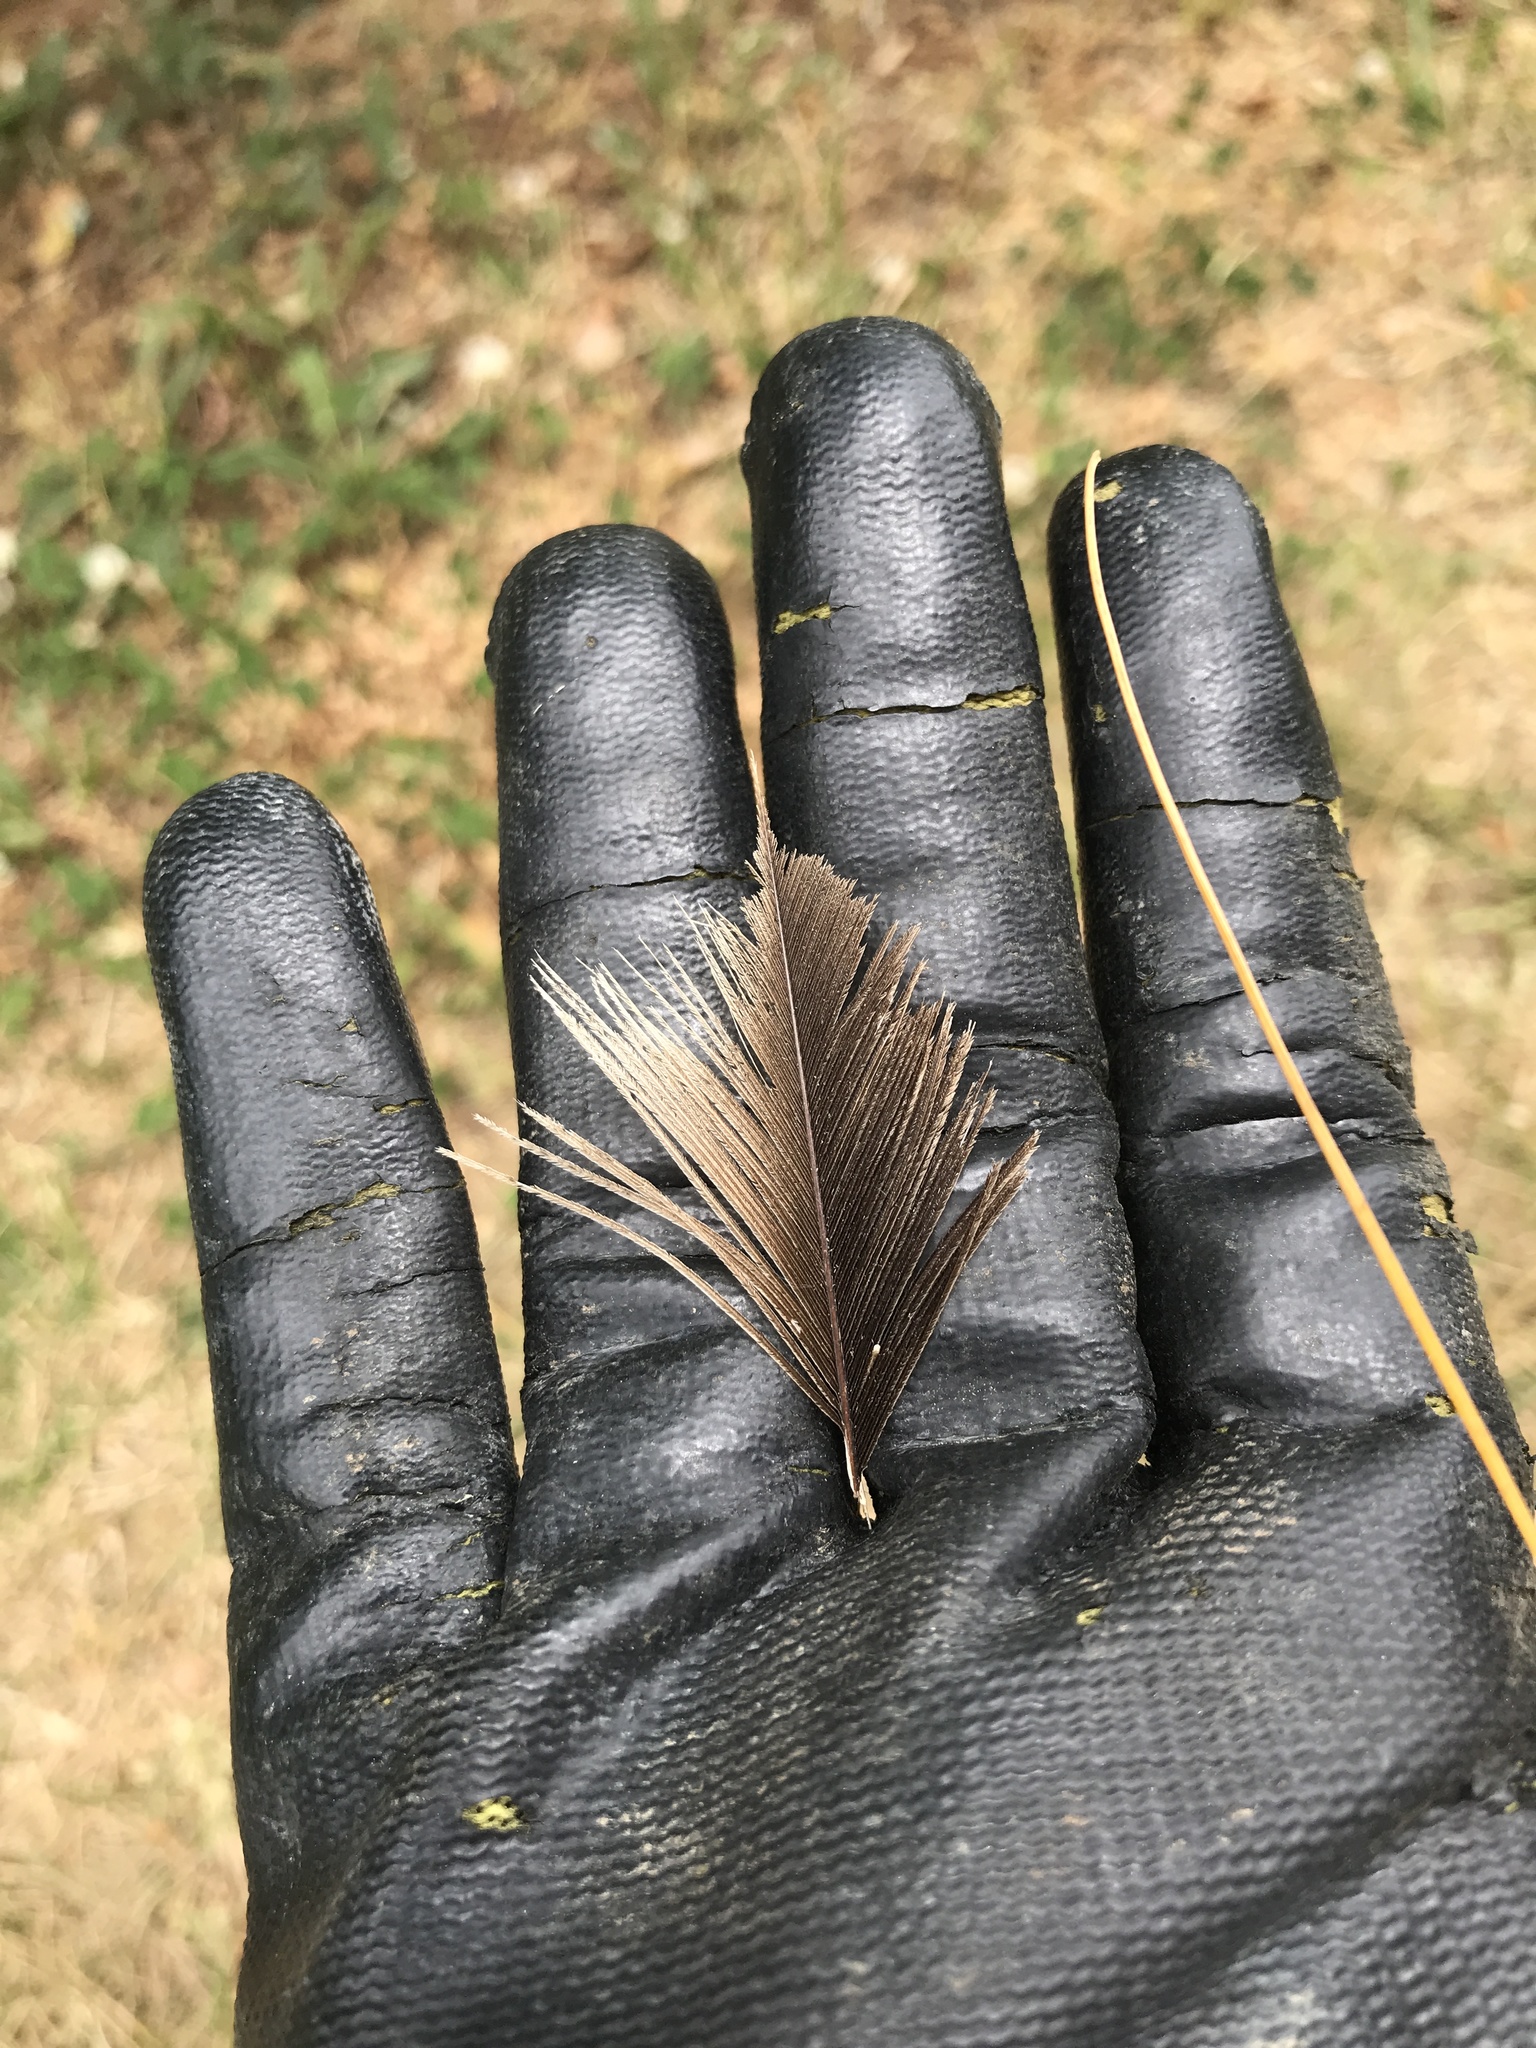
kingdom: Animalia
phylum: Chordata
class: Aves
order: Accipitriformes
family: Cathartidae
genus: Cathartes
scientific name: Cathartes aura
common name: Turkey vulture
